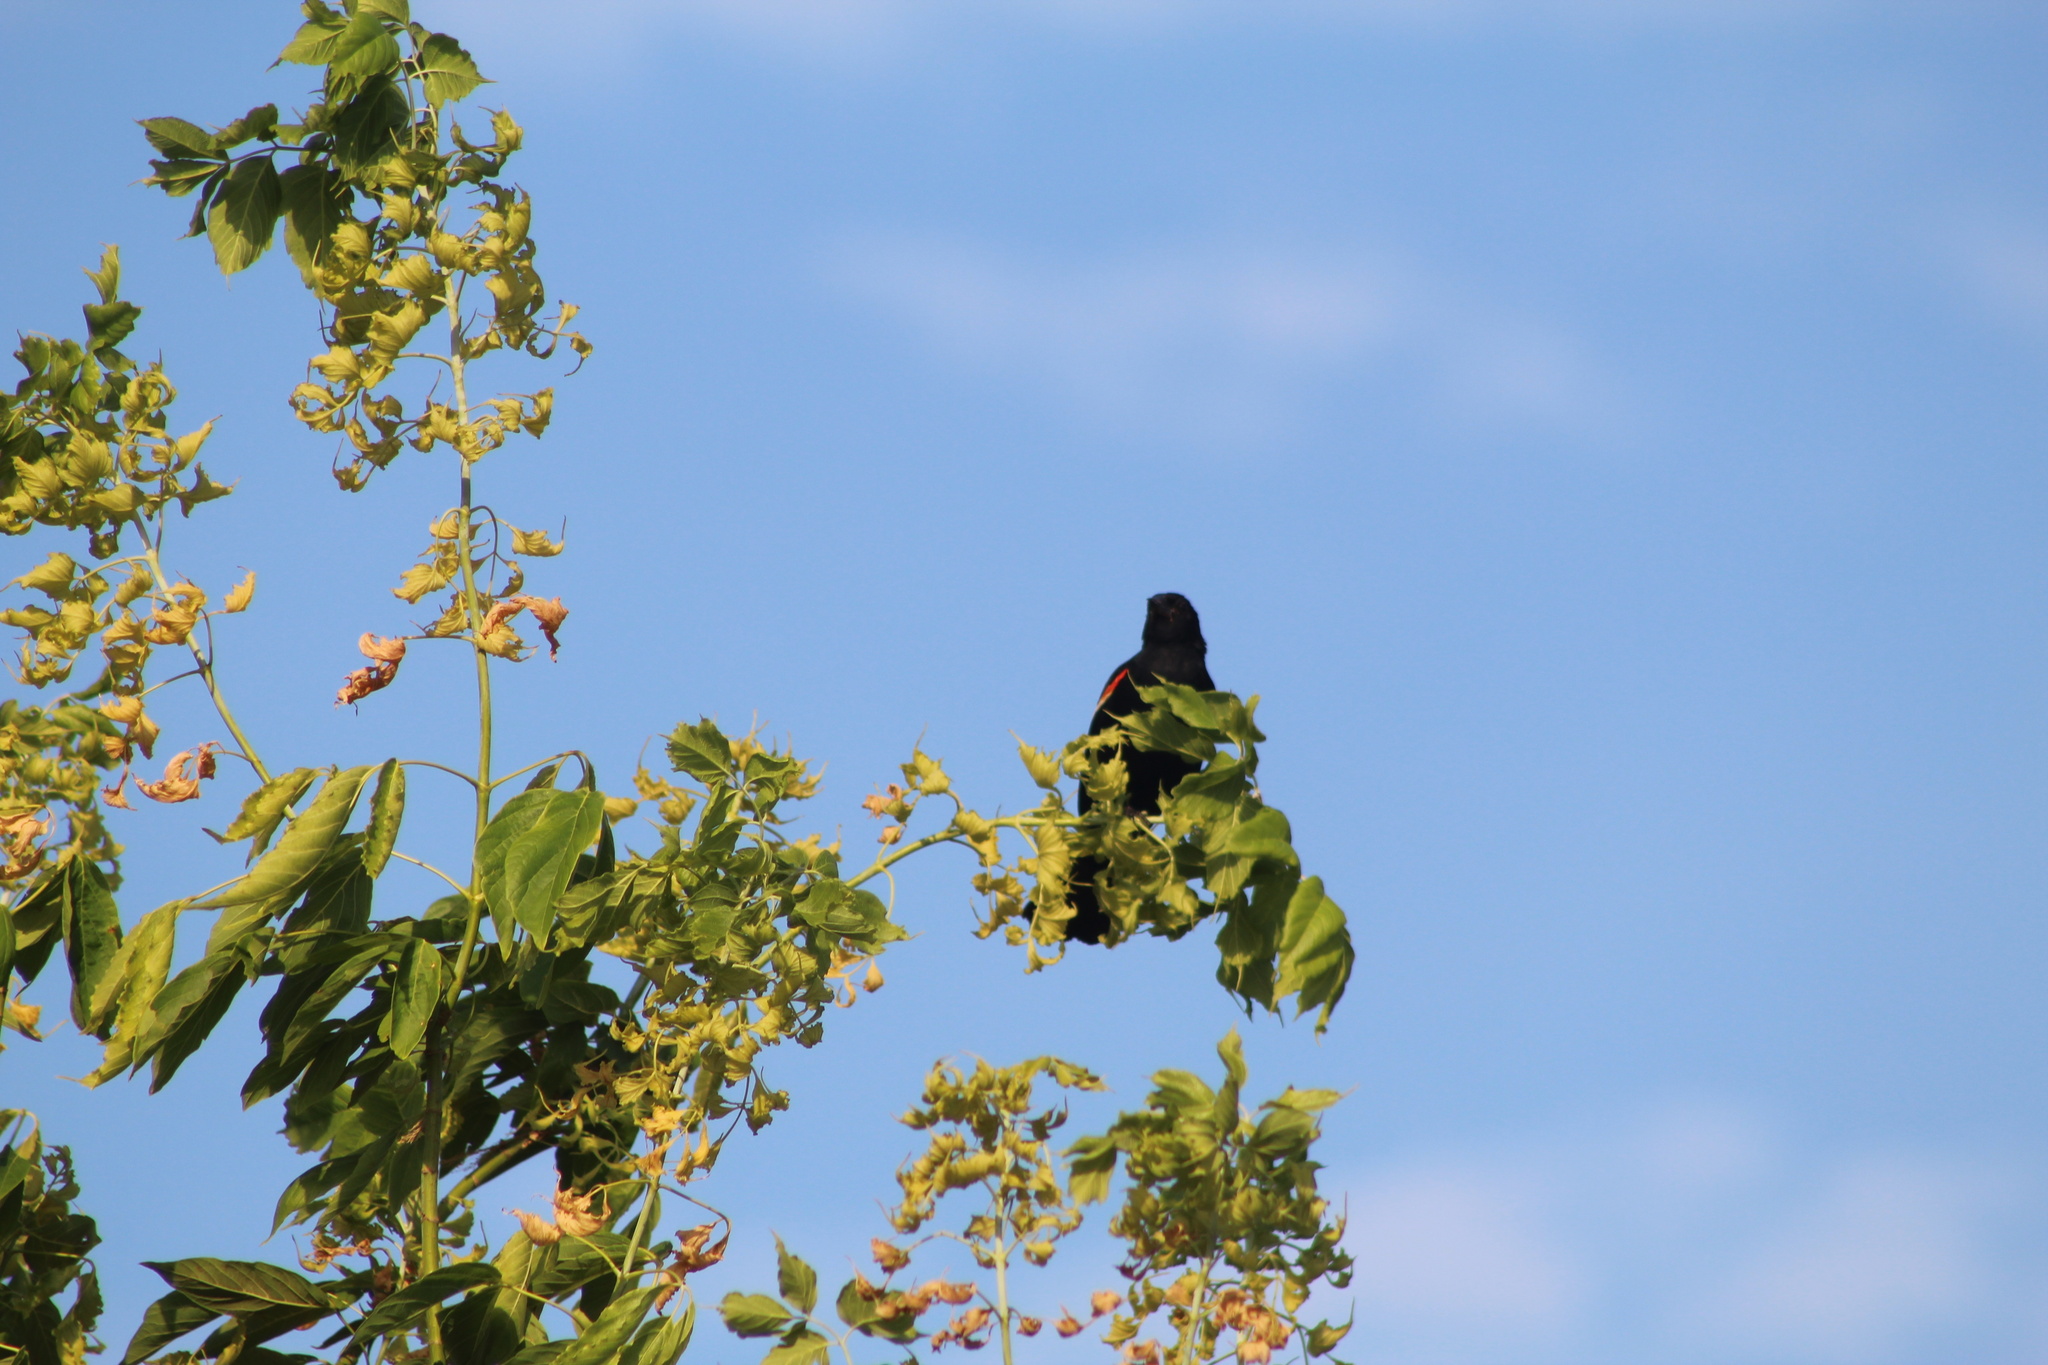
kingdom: Animalia
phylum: Chordata
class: Aves
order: Passeriformes
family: Icteridae
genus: Agelaius
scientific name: Agelaius phoeniceus
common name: Red-winged blackbird
